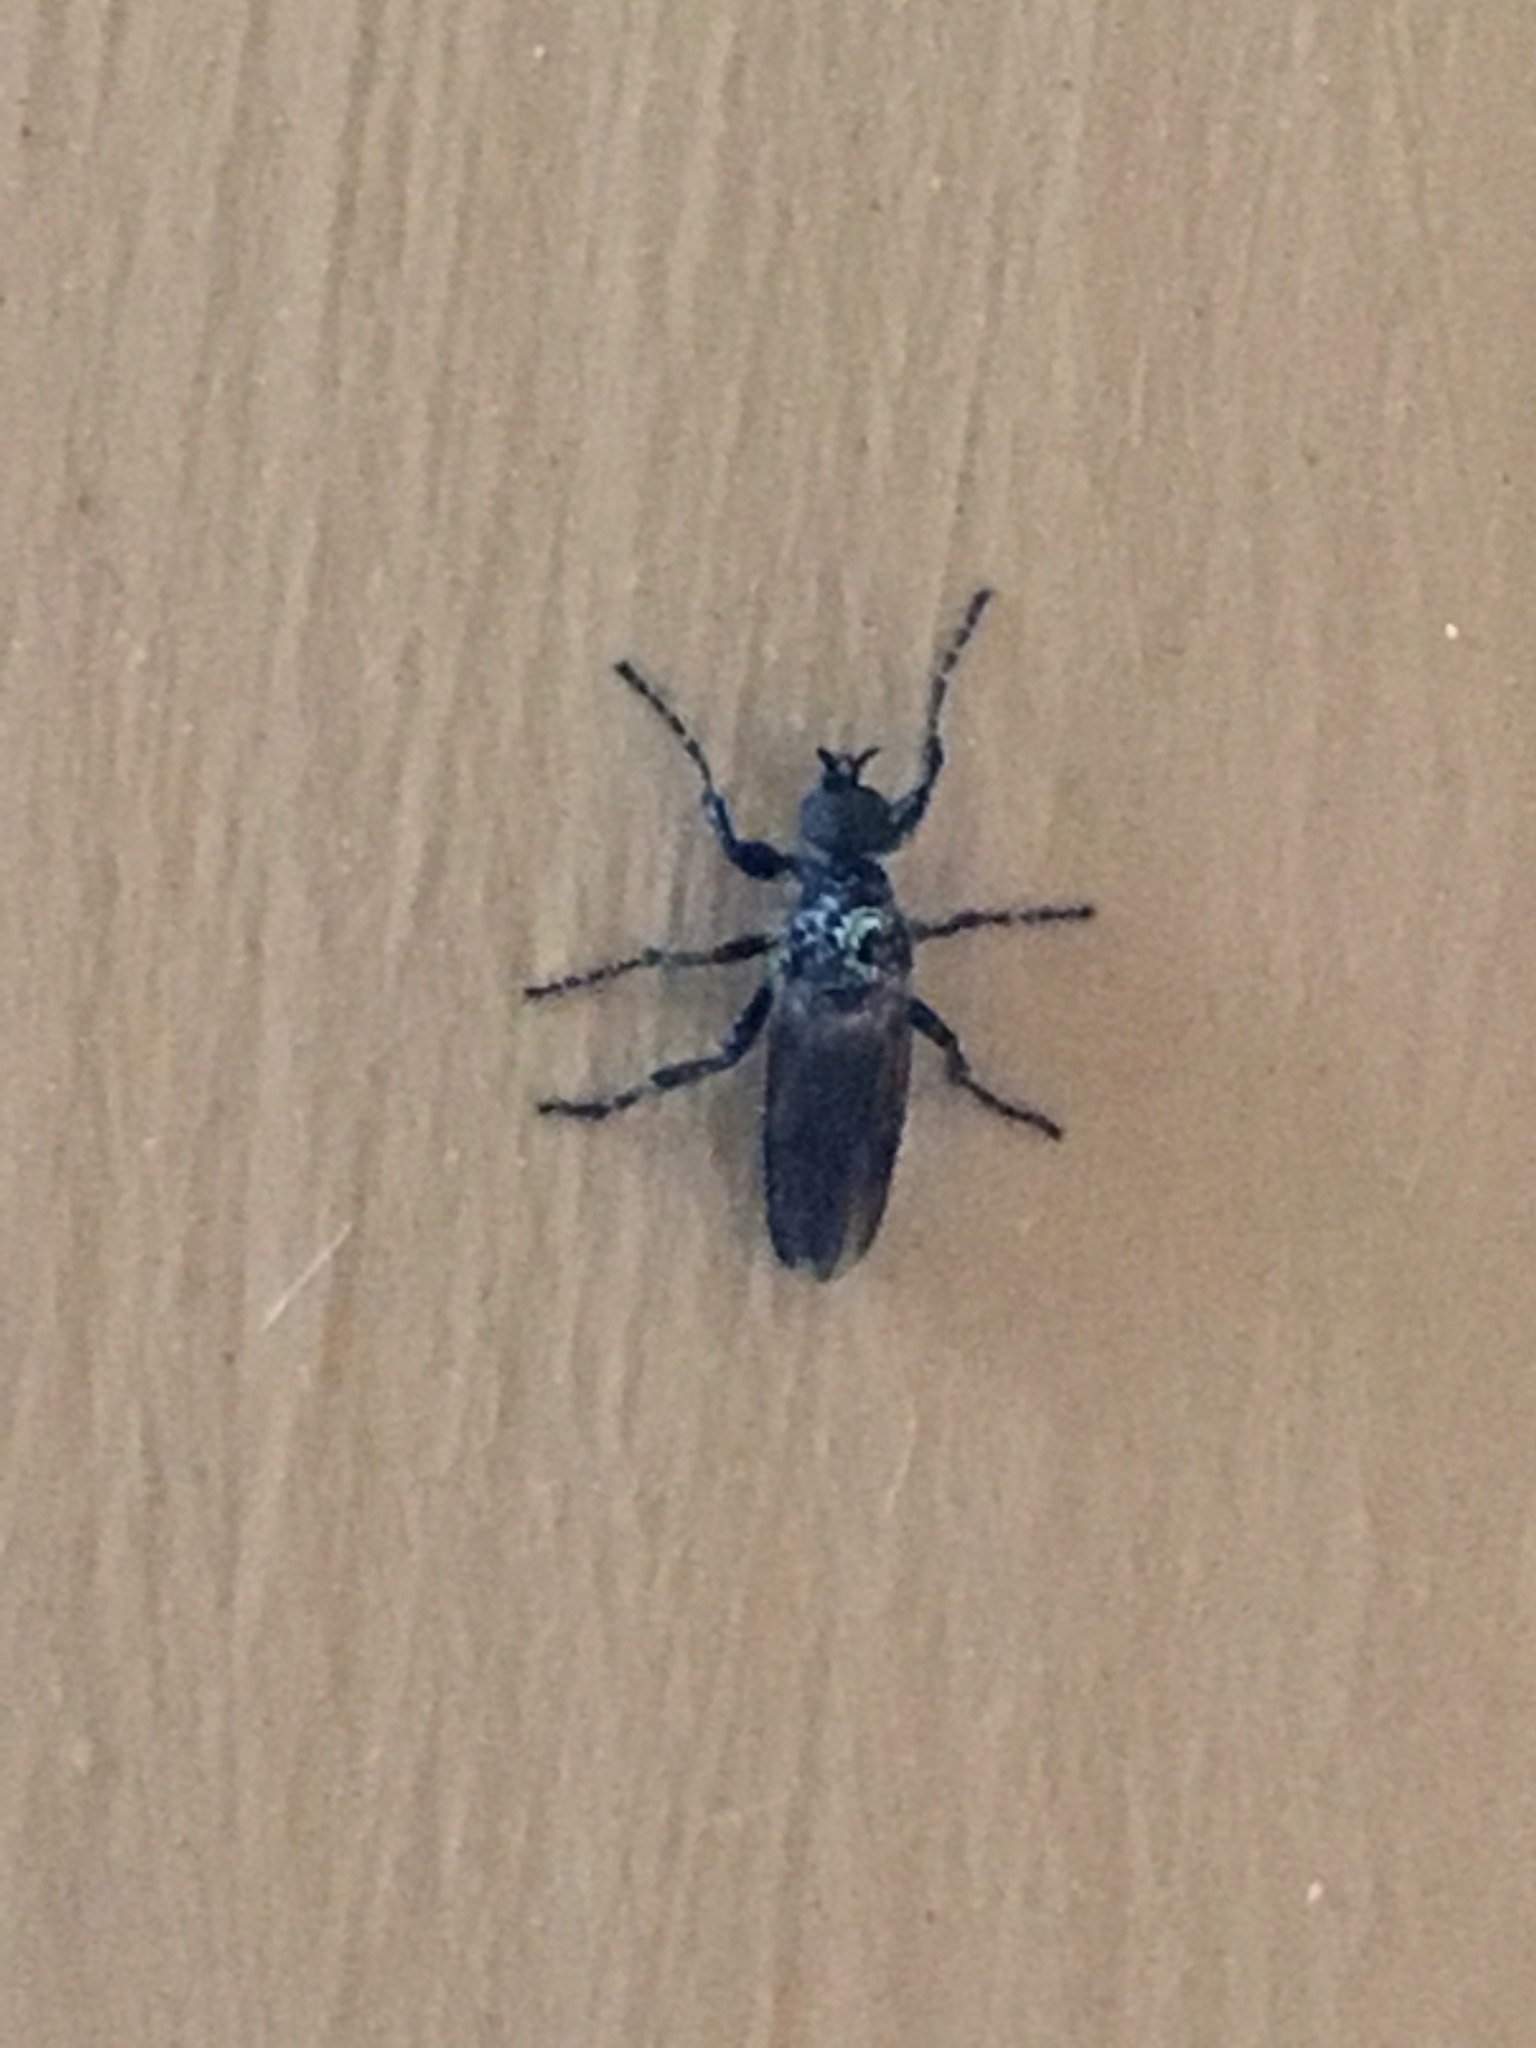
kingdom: Animalia
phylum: Arthropoda
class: Insecta
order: Diptera
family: Bibionidae
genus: Bibio
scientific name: Bibio
